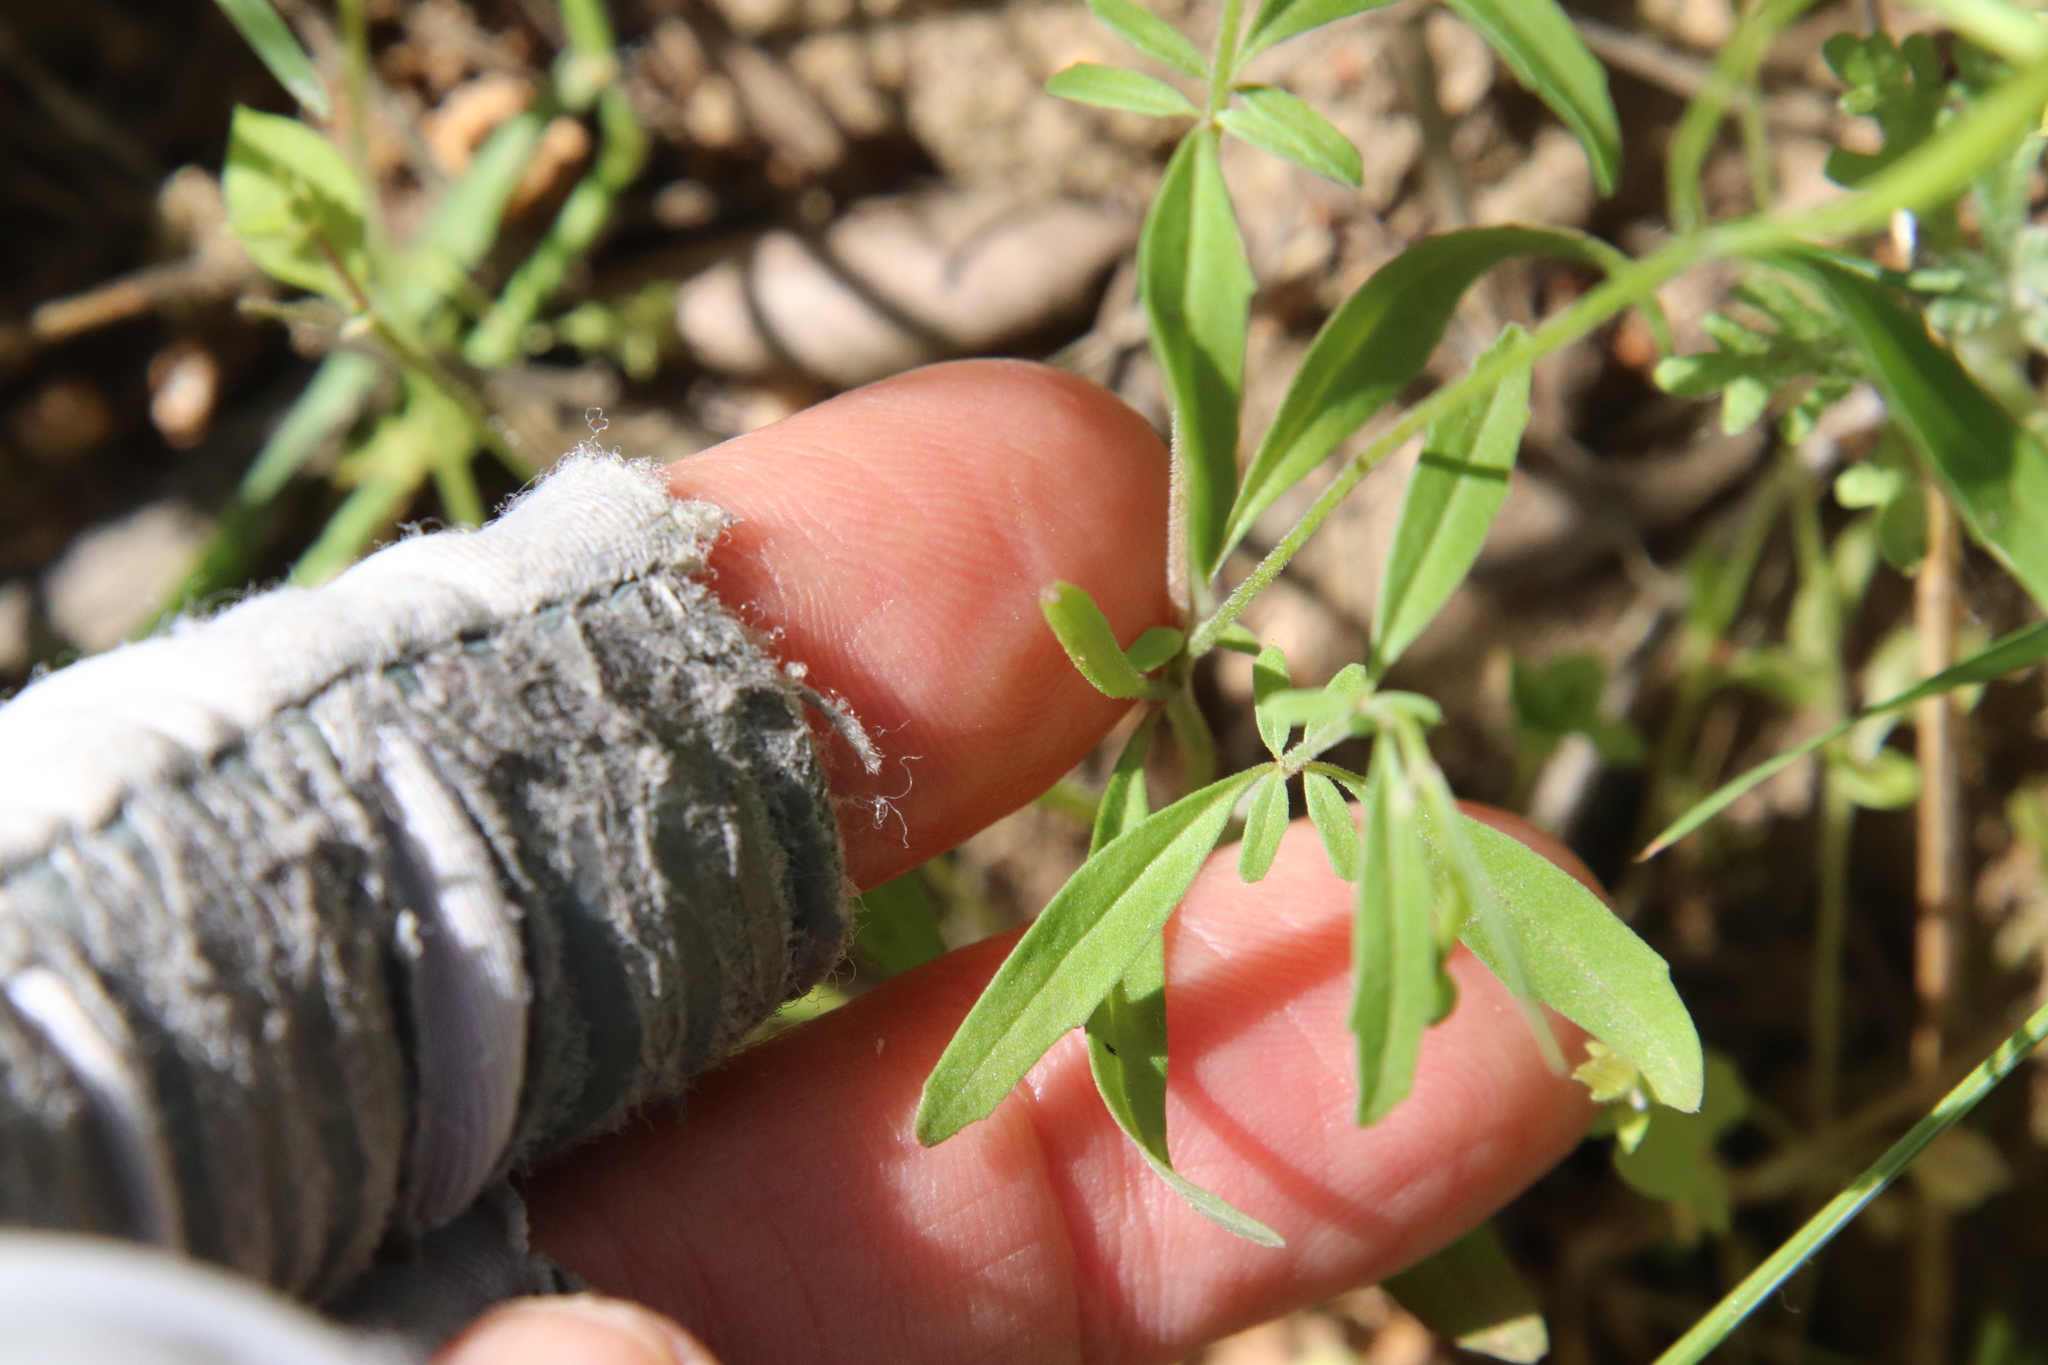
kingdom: Plantae
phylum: Tracheophyta
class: Magnoliopsida
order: Myrtales
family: Onagraceae
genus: Clarkia
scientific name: Clarkia epilobioides
